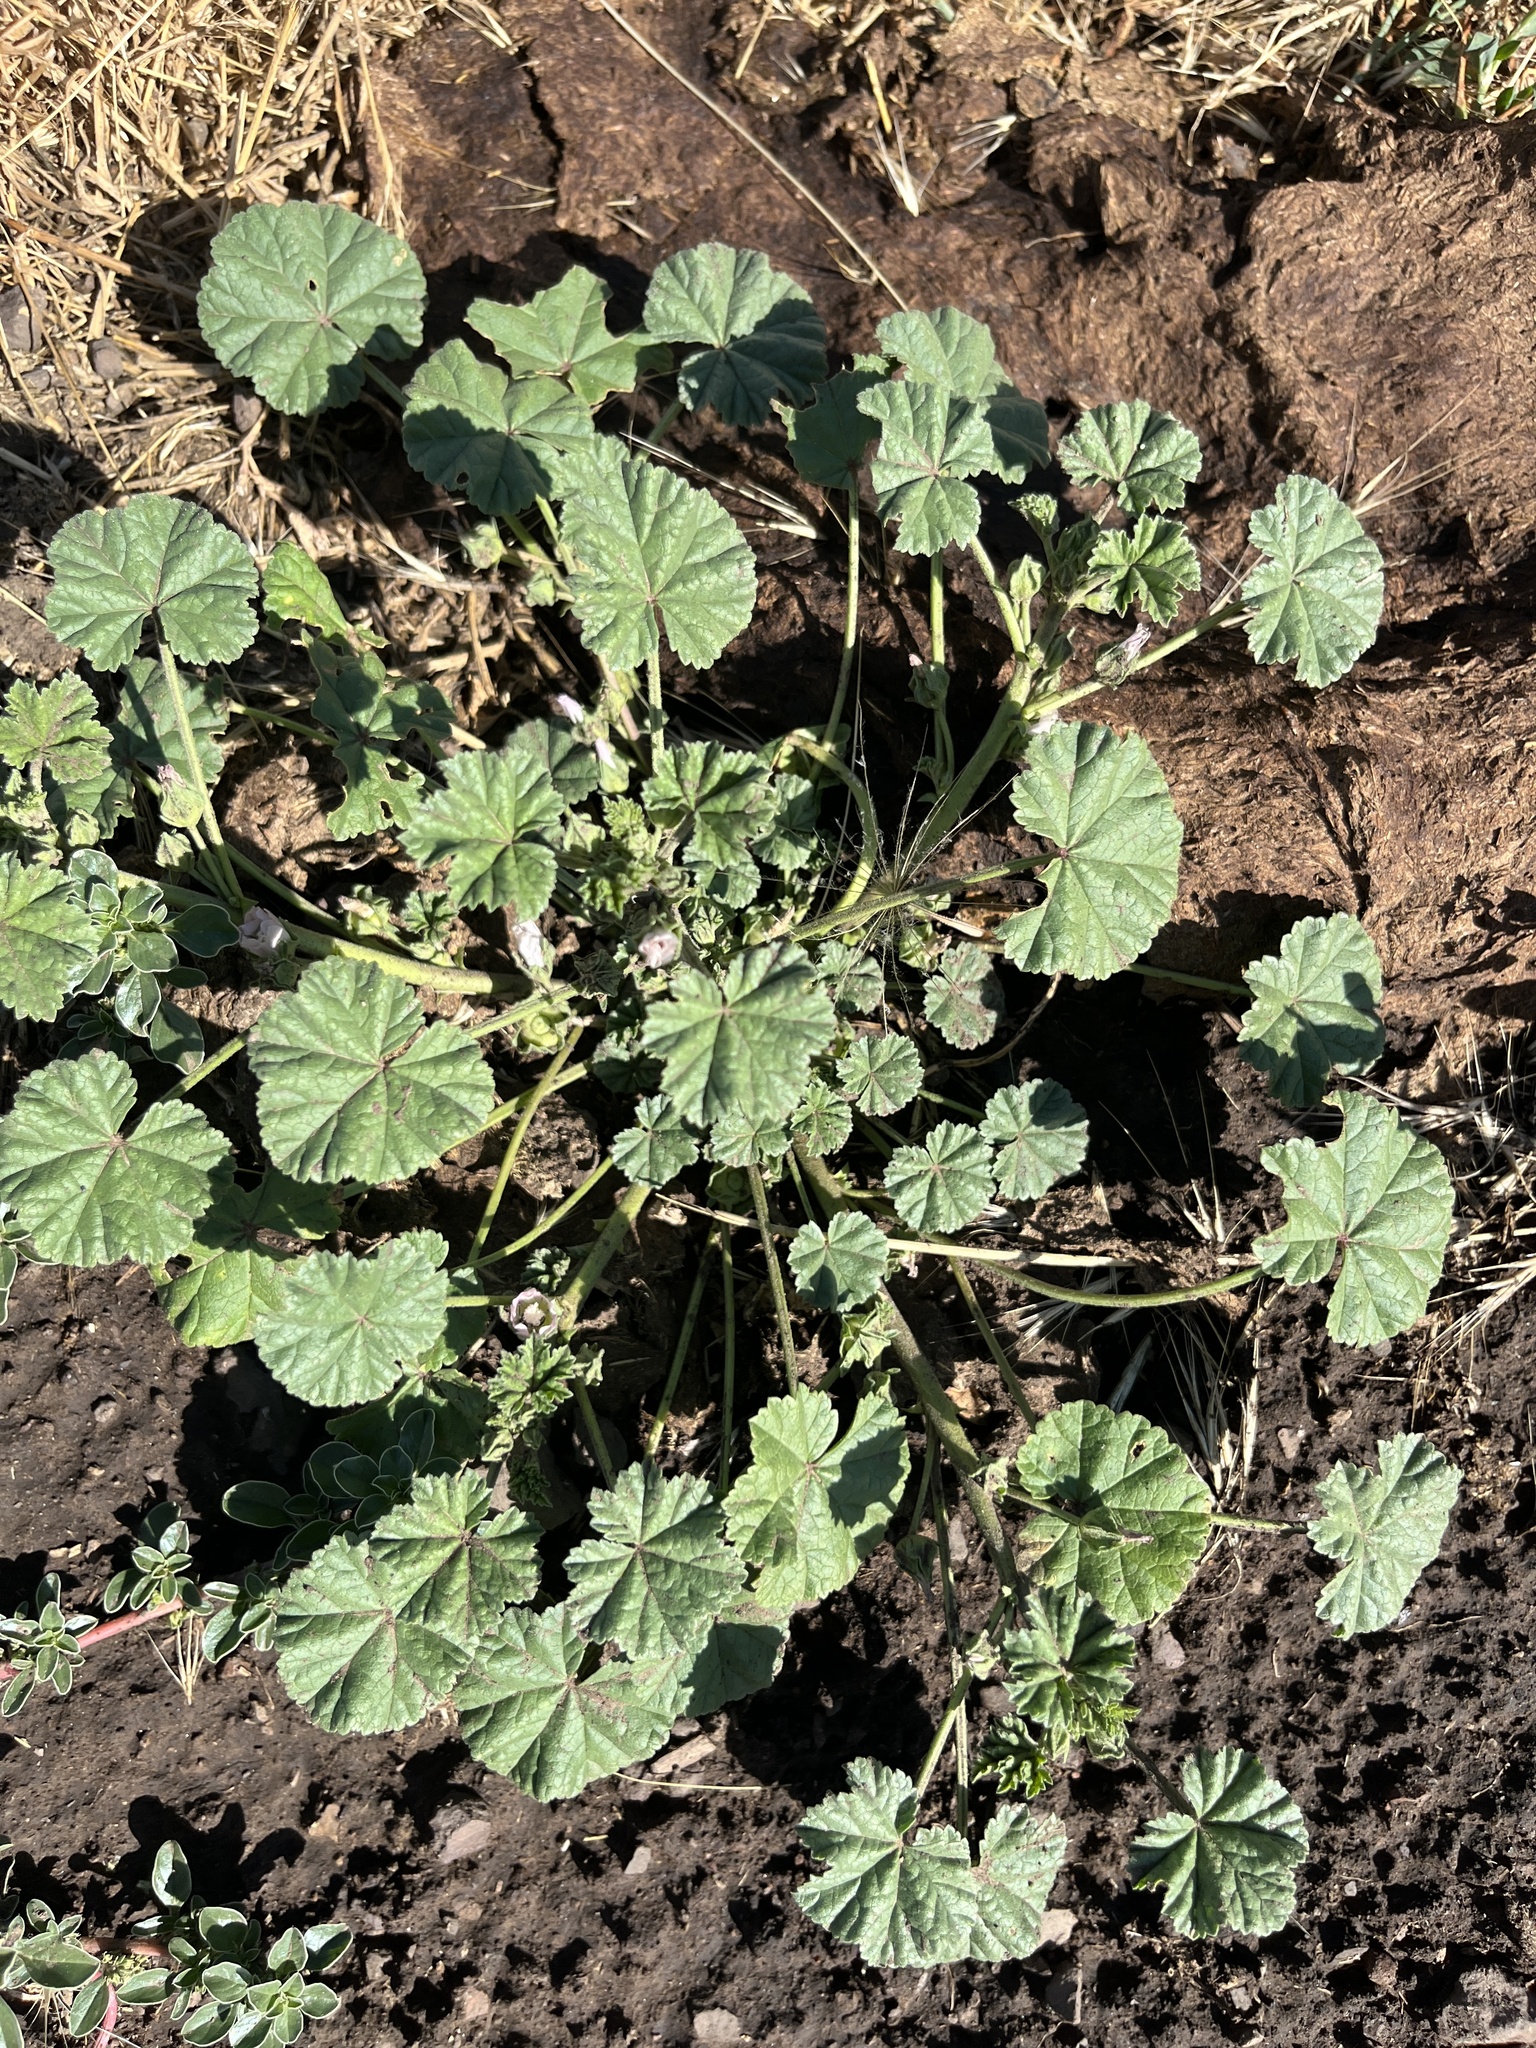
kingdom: Plantae
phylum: Tracheophyta
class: Magnoliopsida
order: Malvales
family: Malvaceae
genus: Malva
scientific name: Malva neglecta
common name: Common mallow
